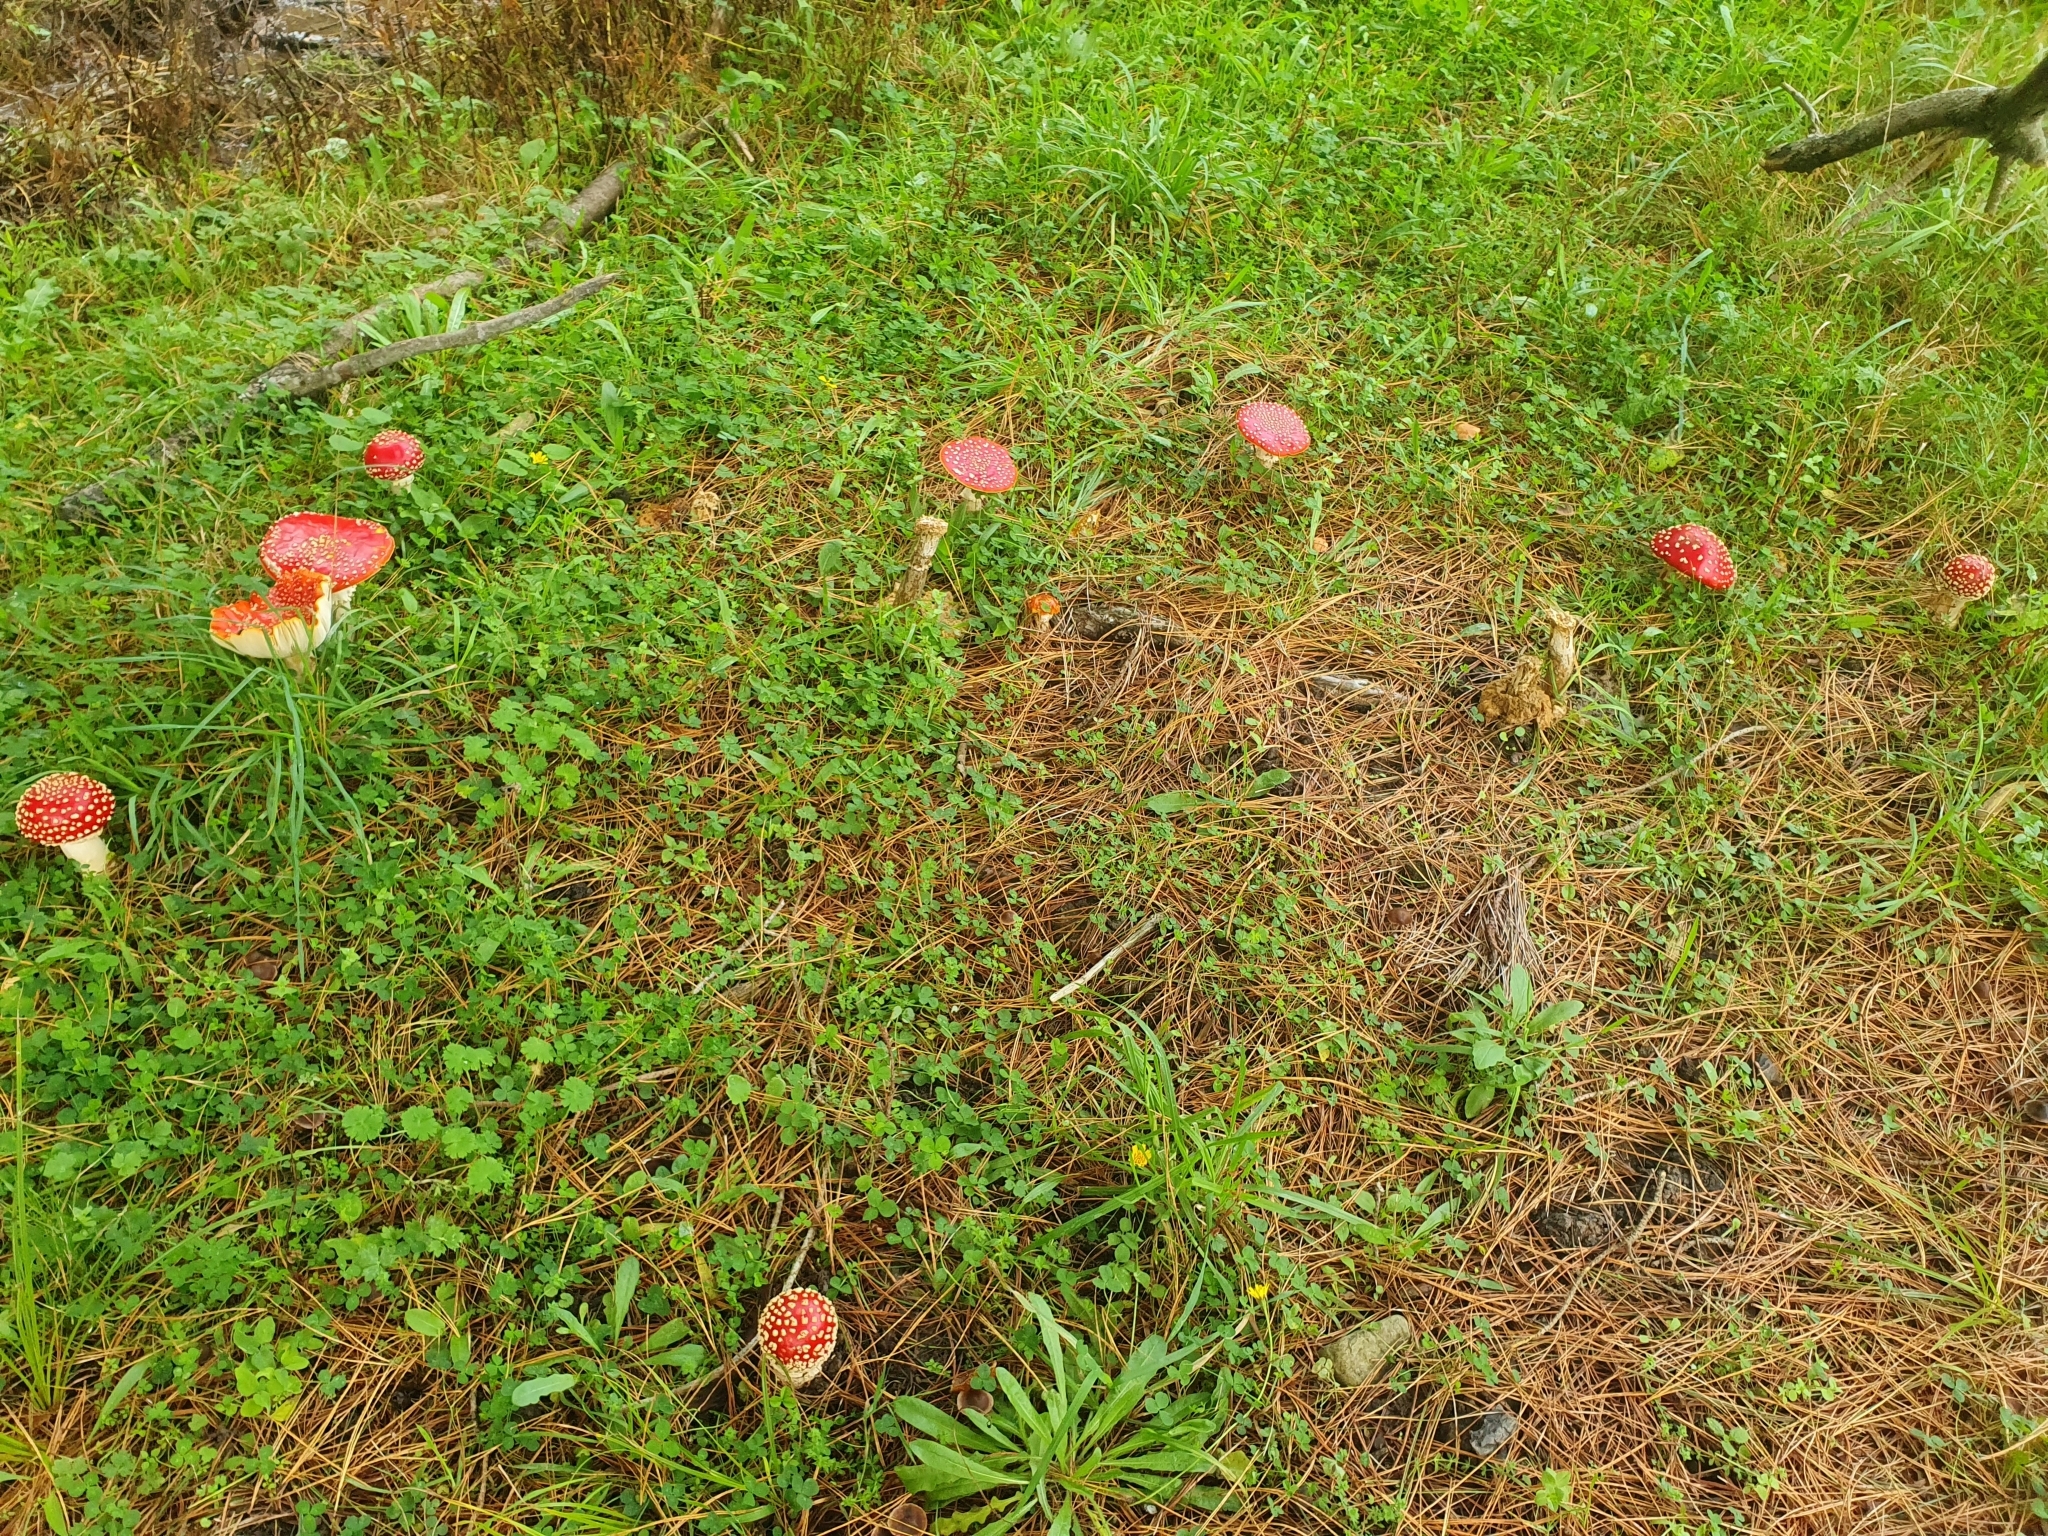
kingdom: Fungi
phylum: Basidiomycota
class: Agaricomycetes
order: Agaricales
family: Amanitaceae
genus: Amanita
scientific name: Amanita muscaria
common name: Fly agaric
